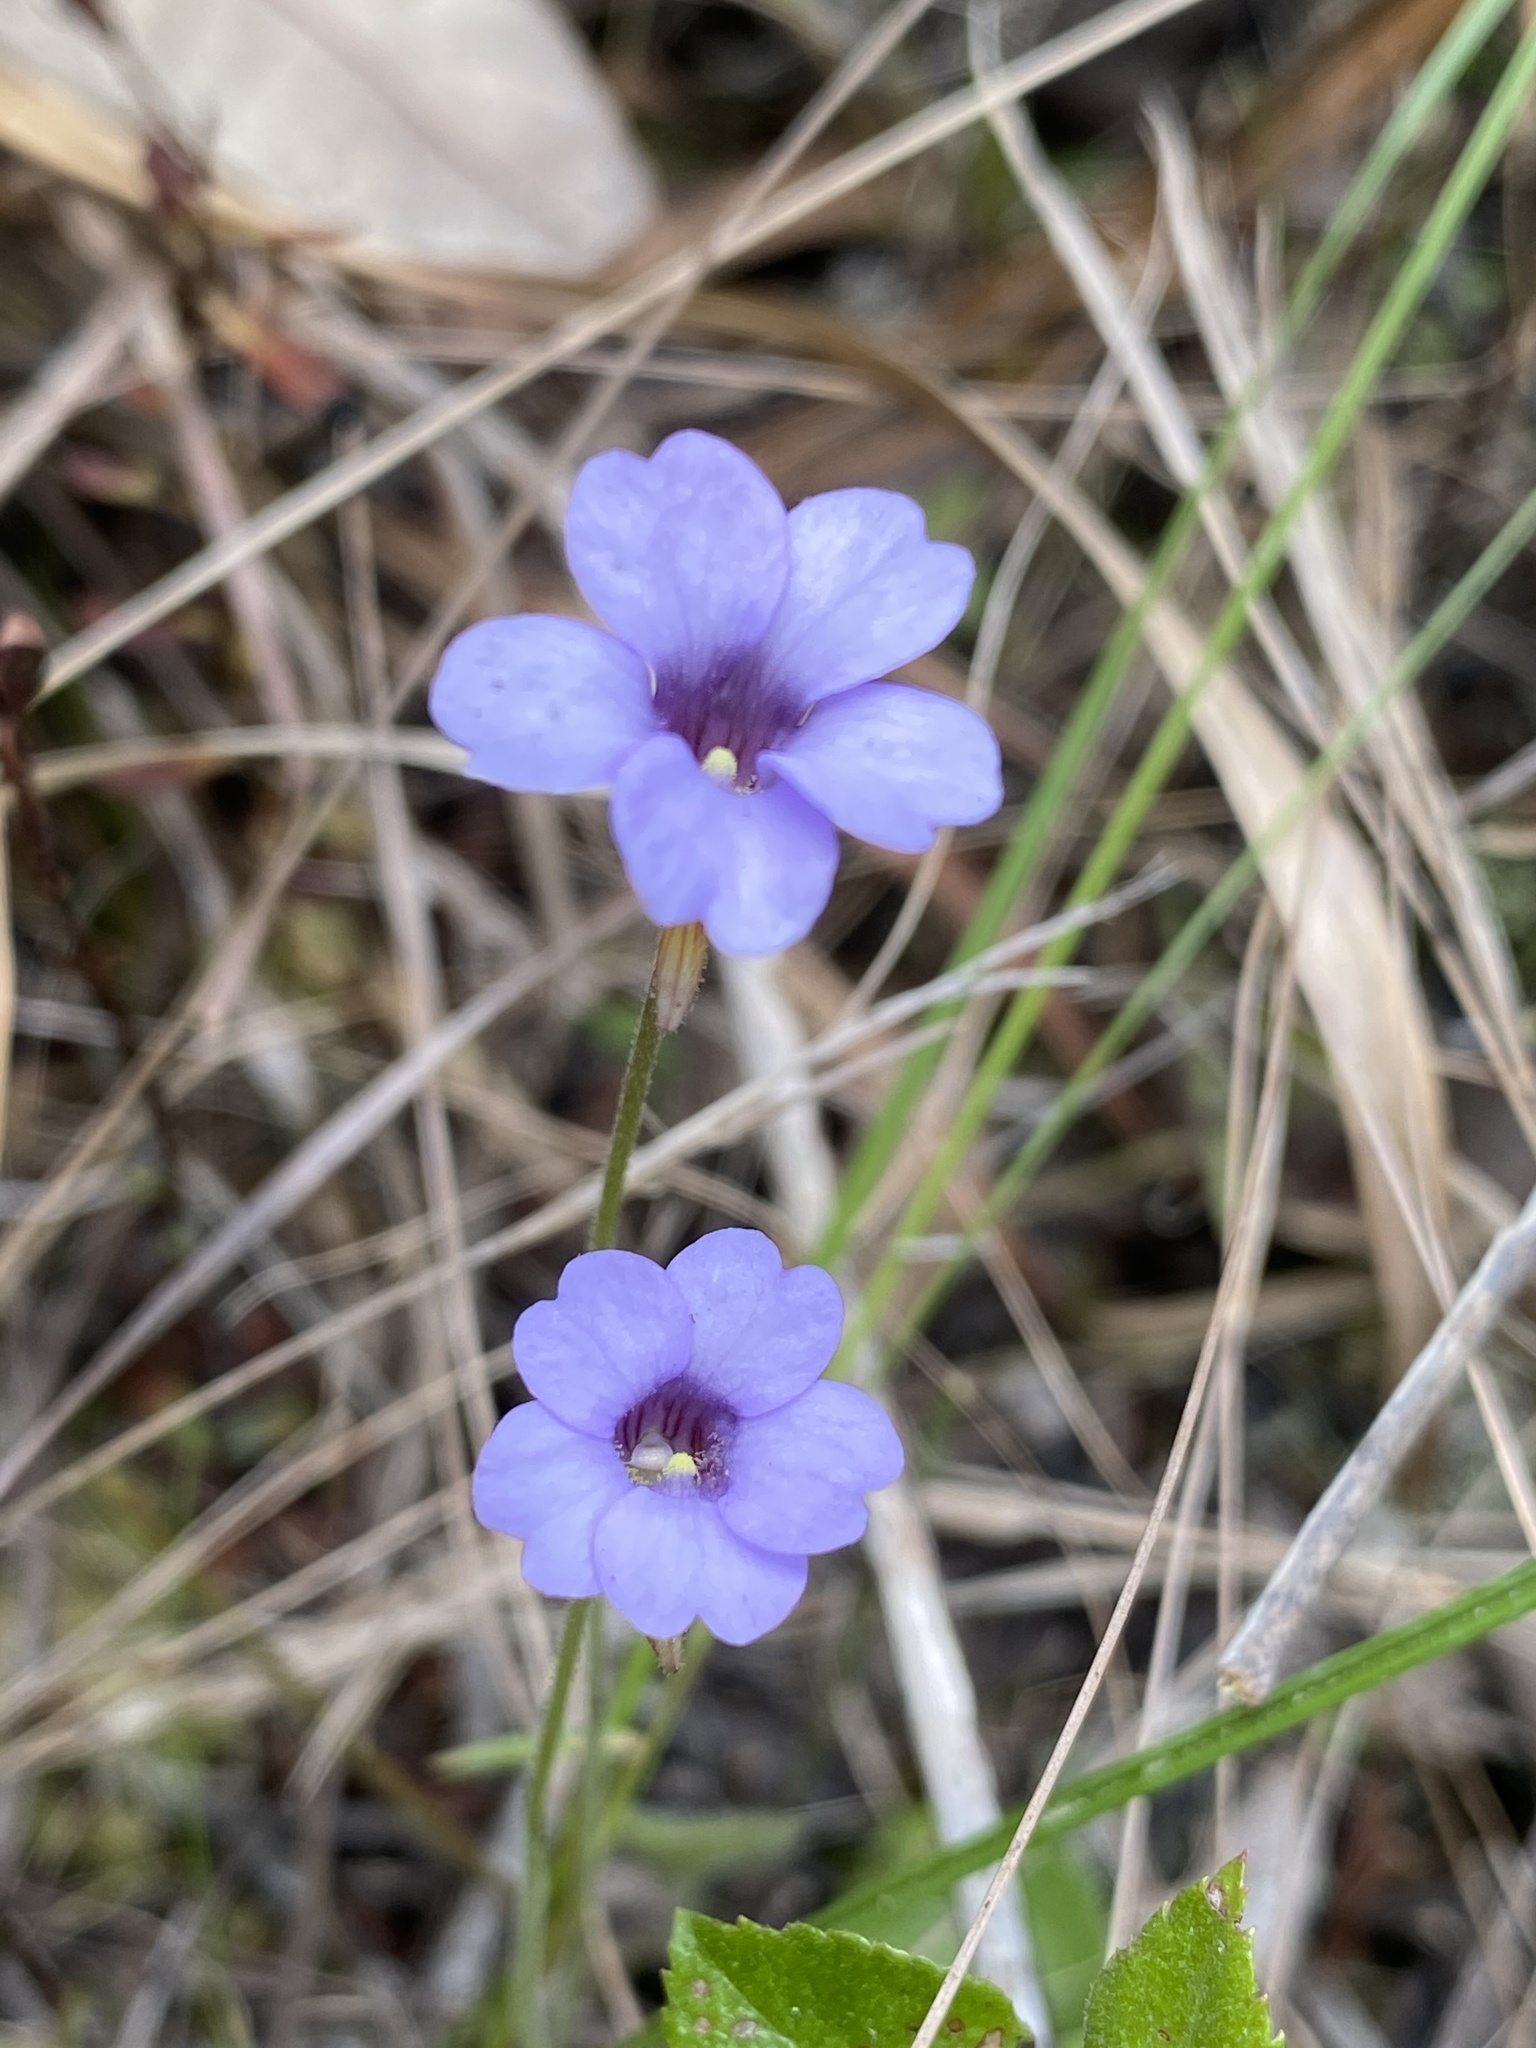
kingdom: Plantae
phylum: Tracheophyta
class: Magnoliopsida
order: Lamiales
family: Lentibulariaceae
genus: Pinguicula
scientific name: Pinguicula pumila
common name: Small butterwort
